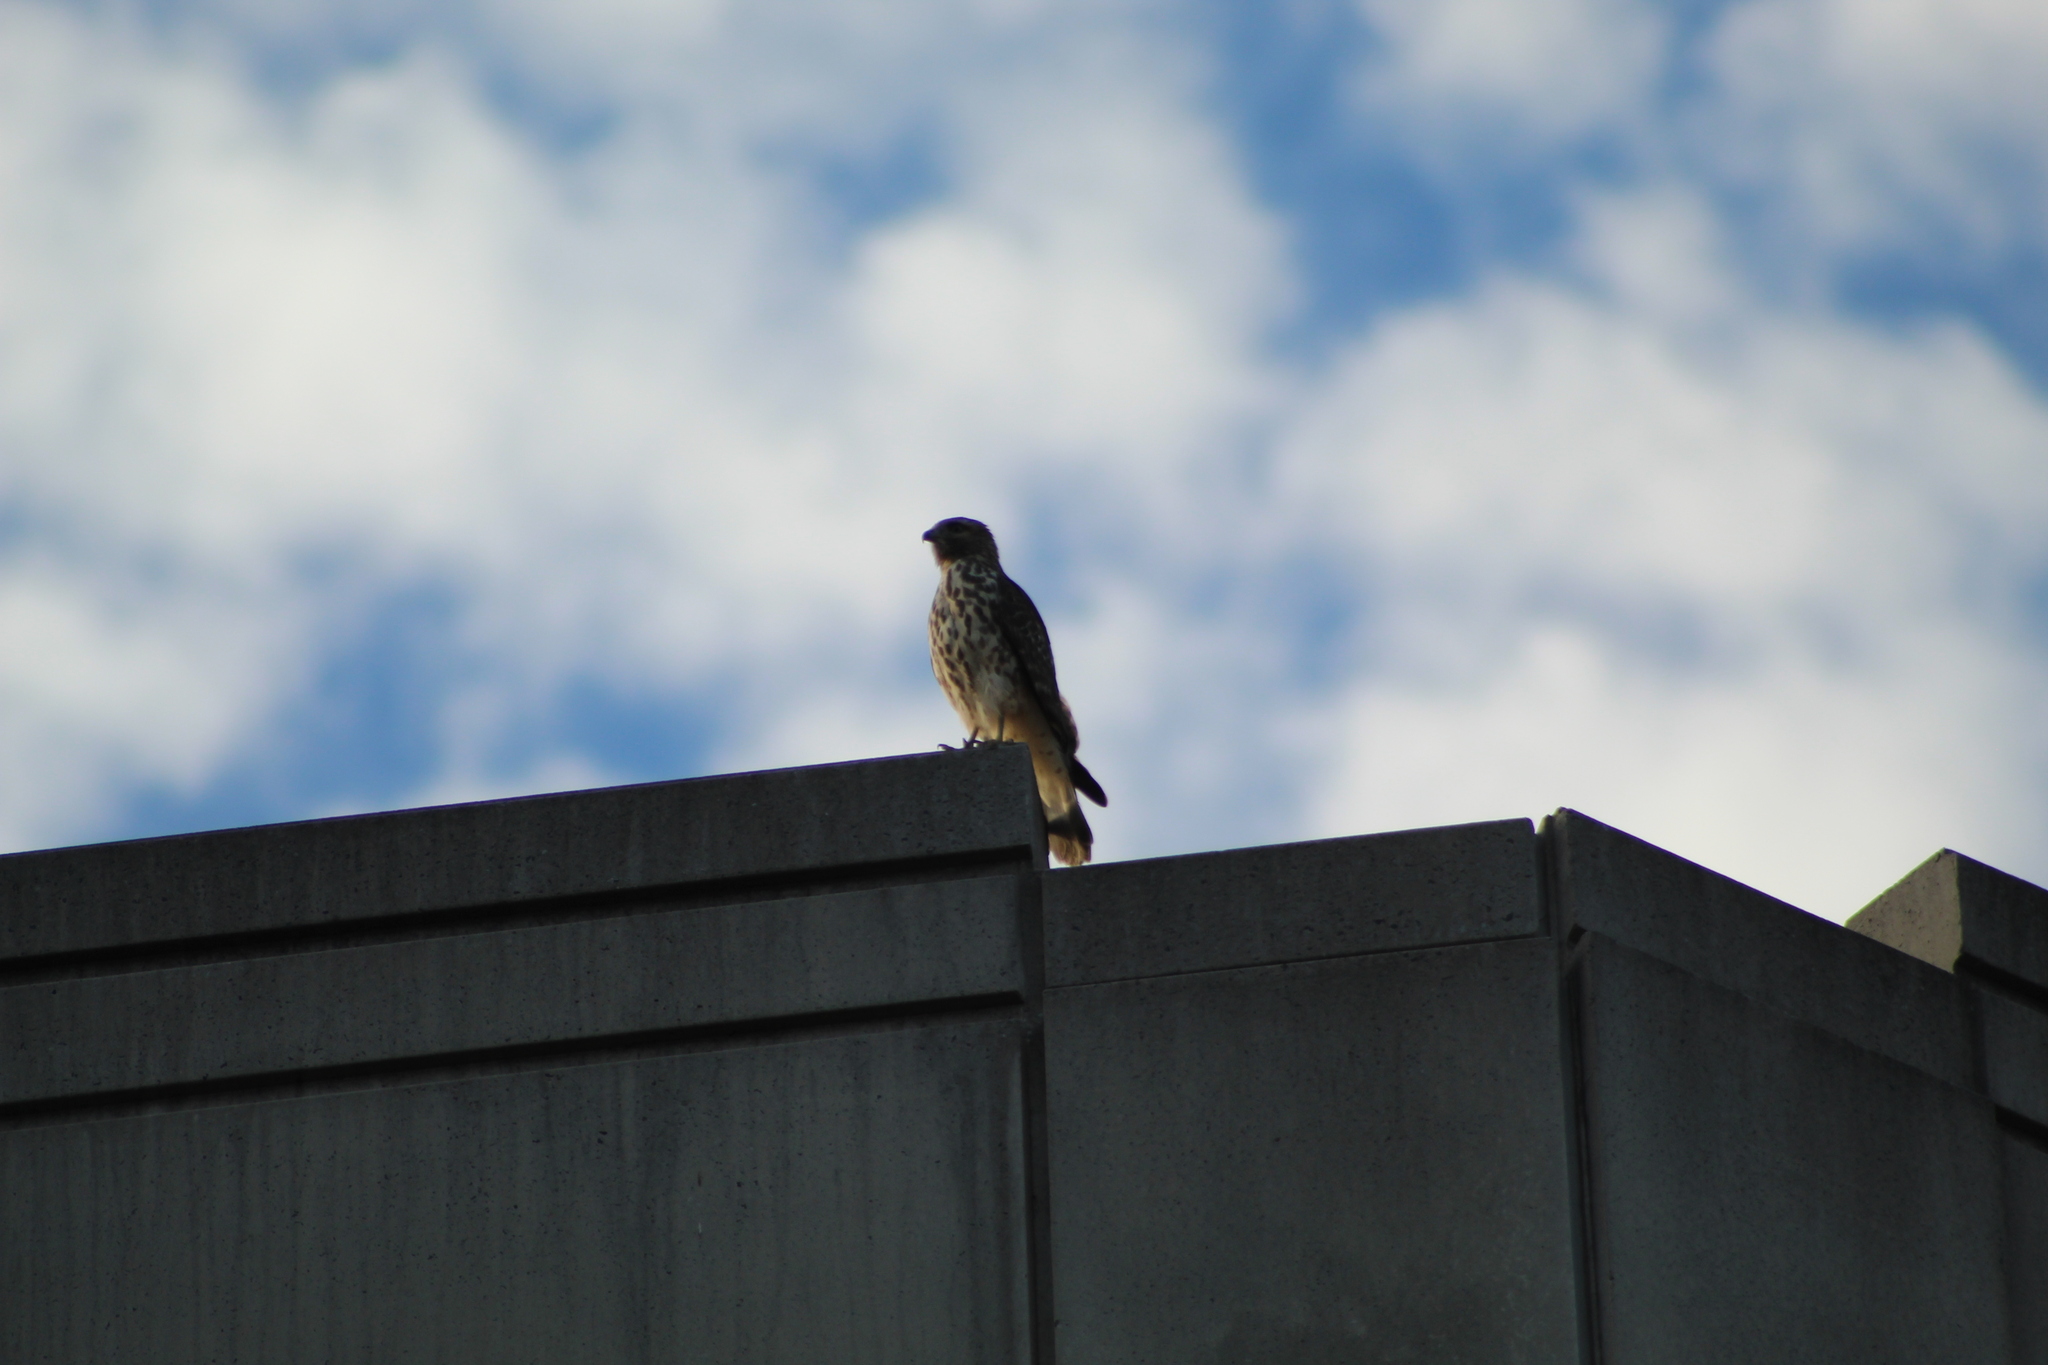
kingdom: Animalia
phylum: Chordata
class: Aves
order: Accipitriformes
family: Accipitridae
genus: Buteo
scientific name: Buteo lineatus
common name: Red-shouldered hawk
